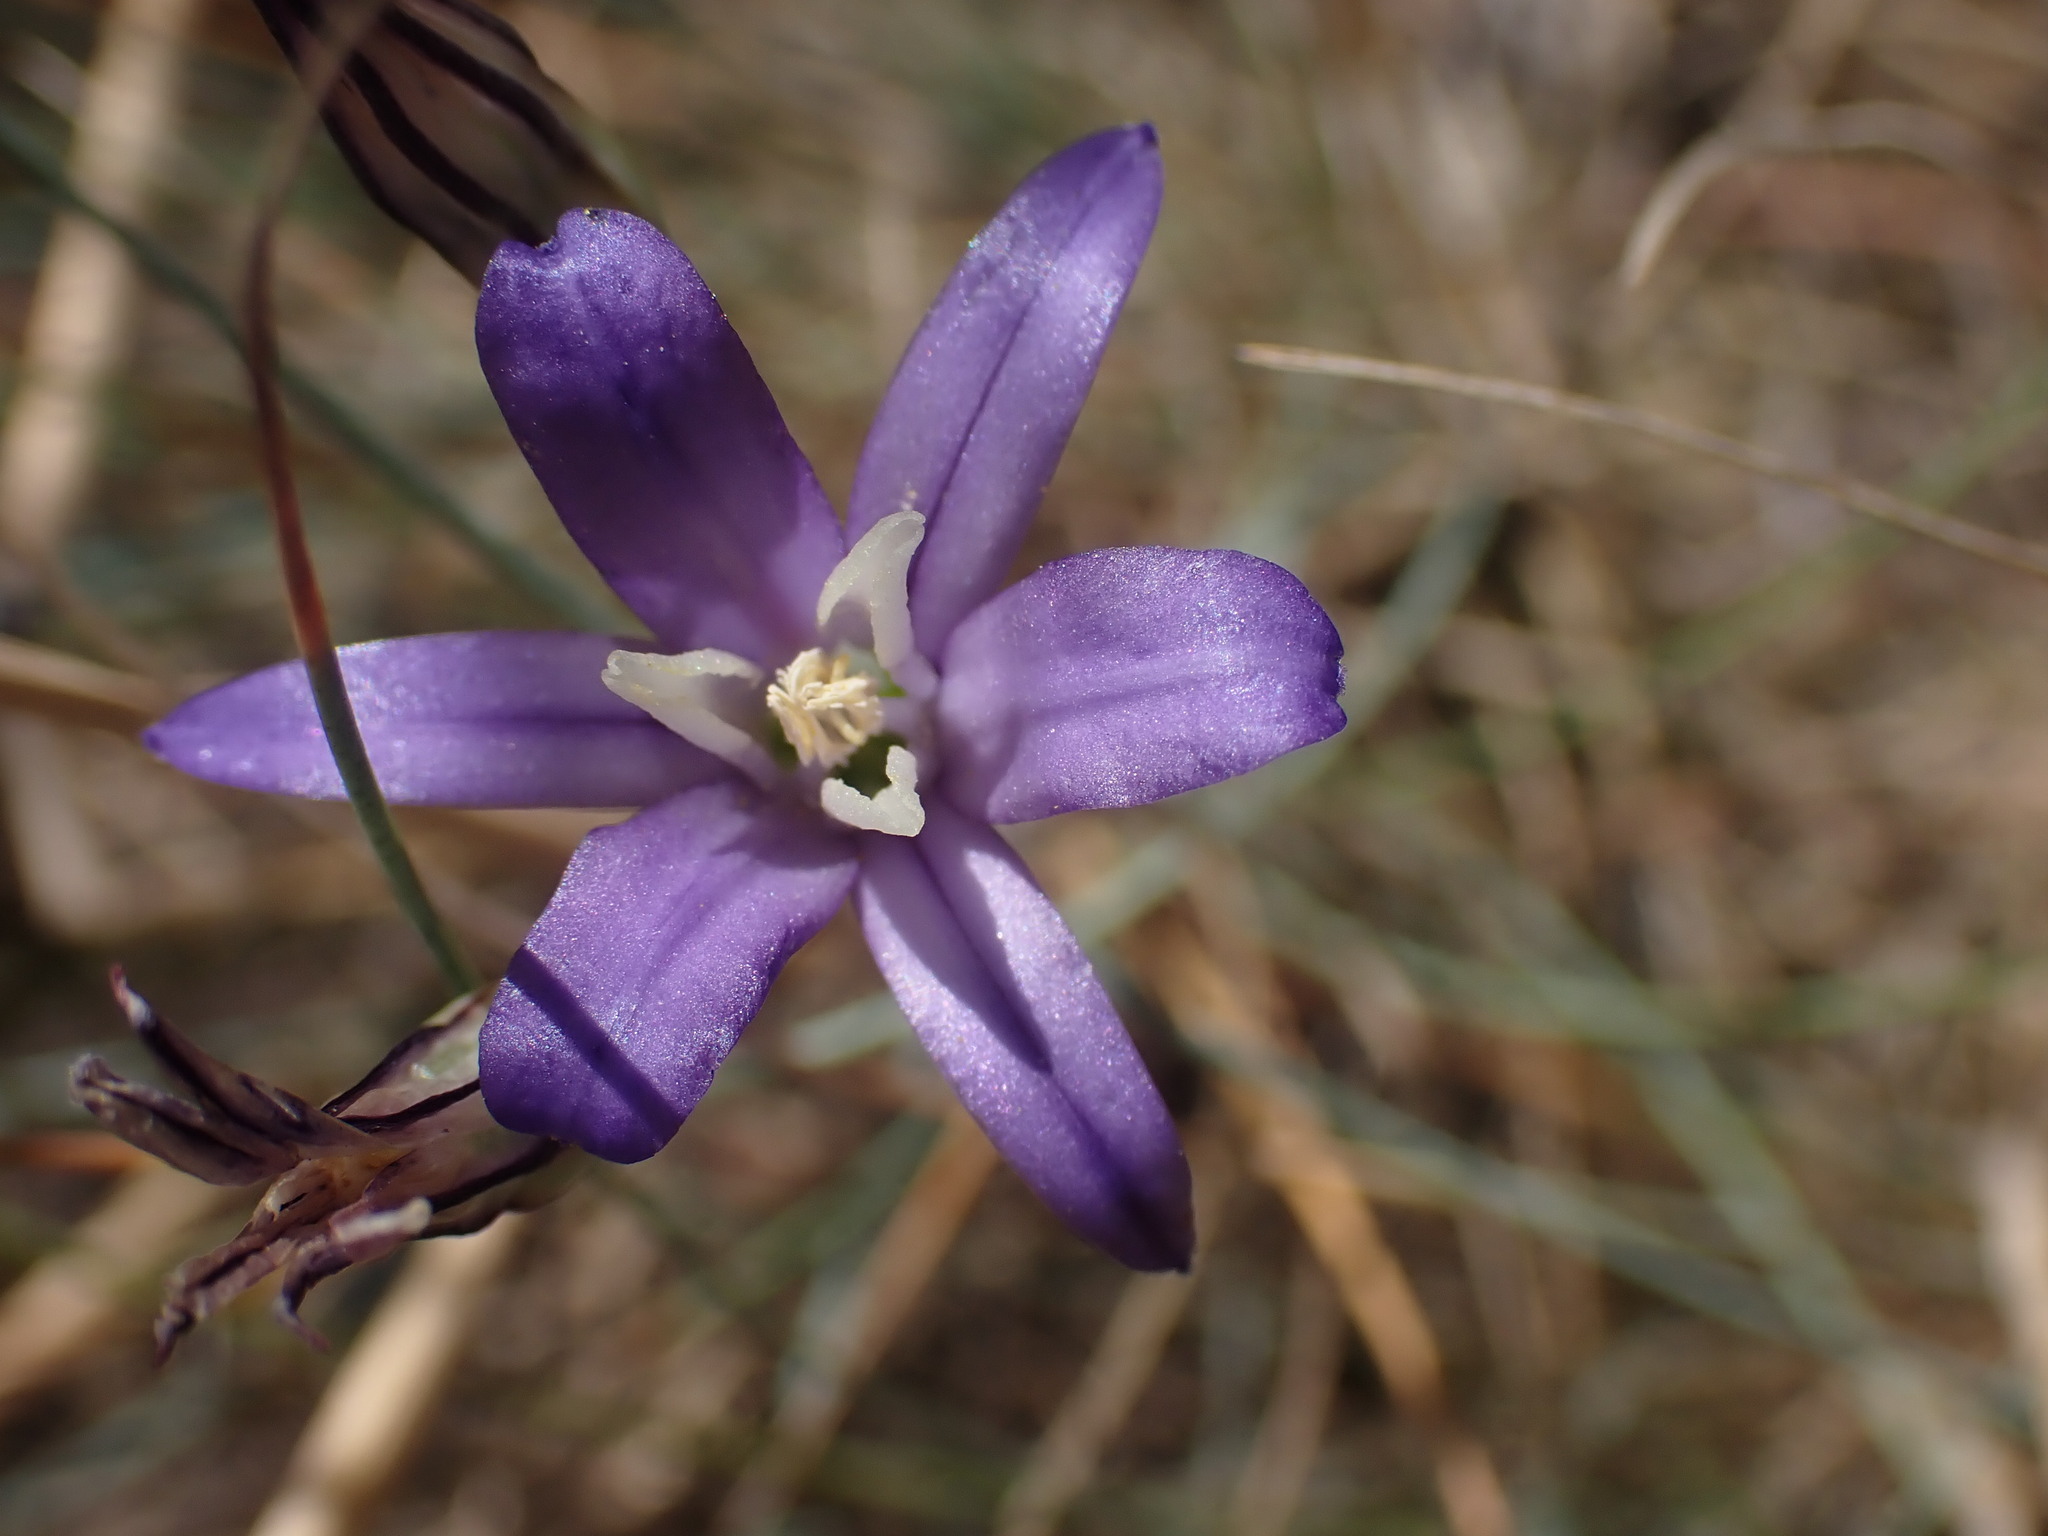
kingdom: Plantae
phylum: Tracheophyta
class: Liliopsida
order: Asparagales
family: Asparagaceae
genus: Brodiaea
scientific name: Brodiaea coronaria
